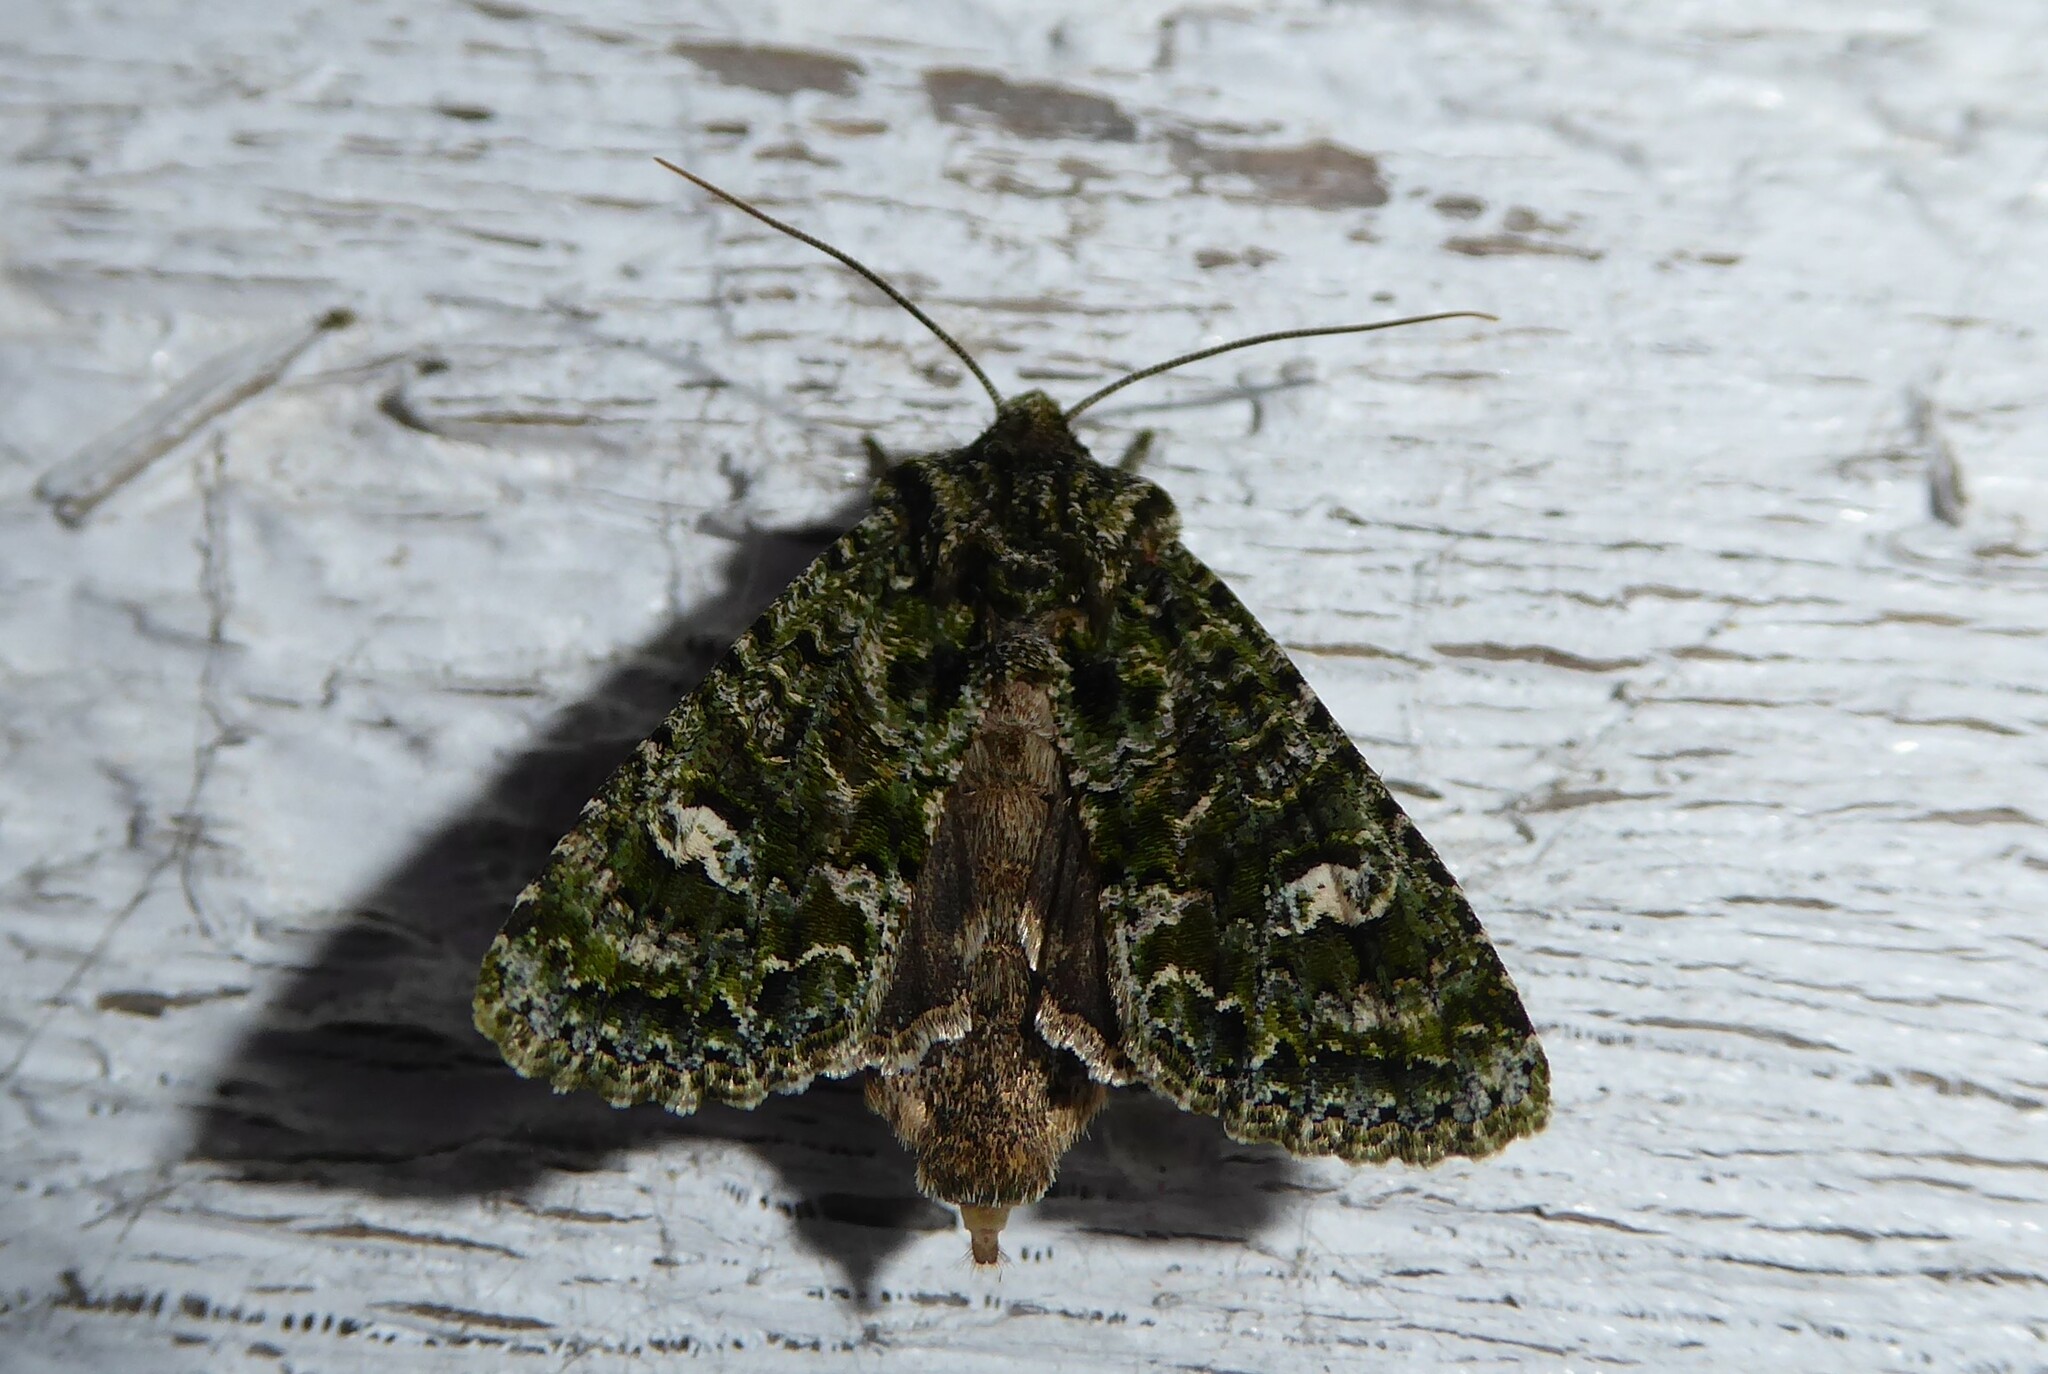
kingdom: Animalia
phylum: Arthropoda
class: Insecta
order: Lepidoptera
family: Noctuidae
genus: Ichneutica
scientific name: Ichneutica
